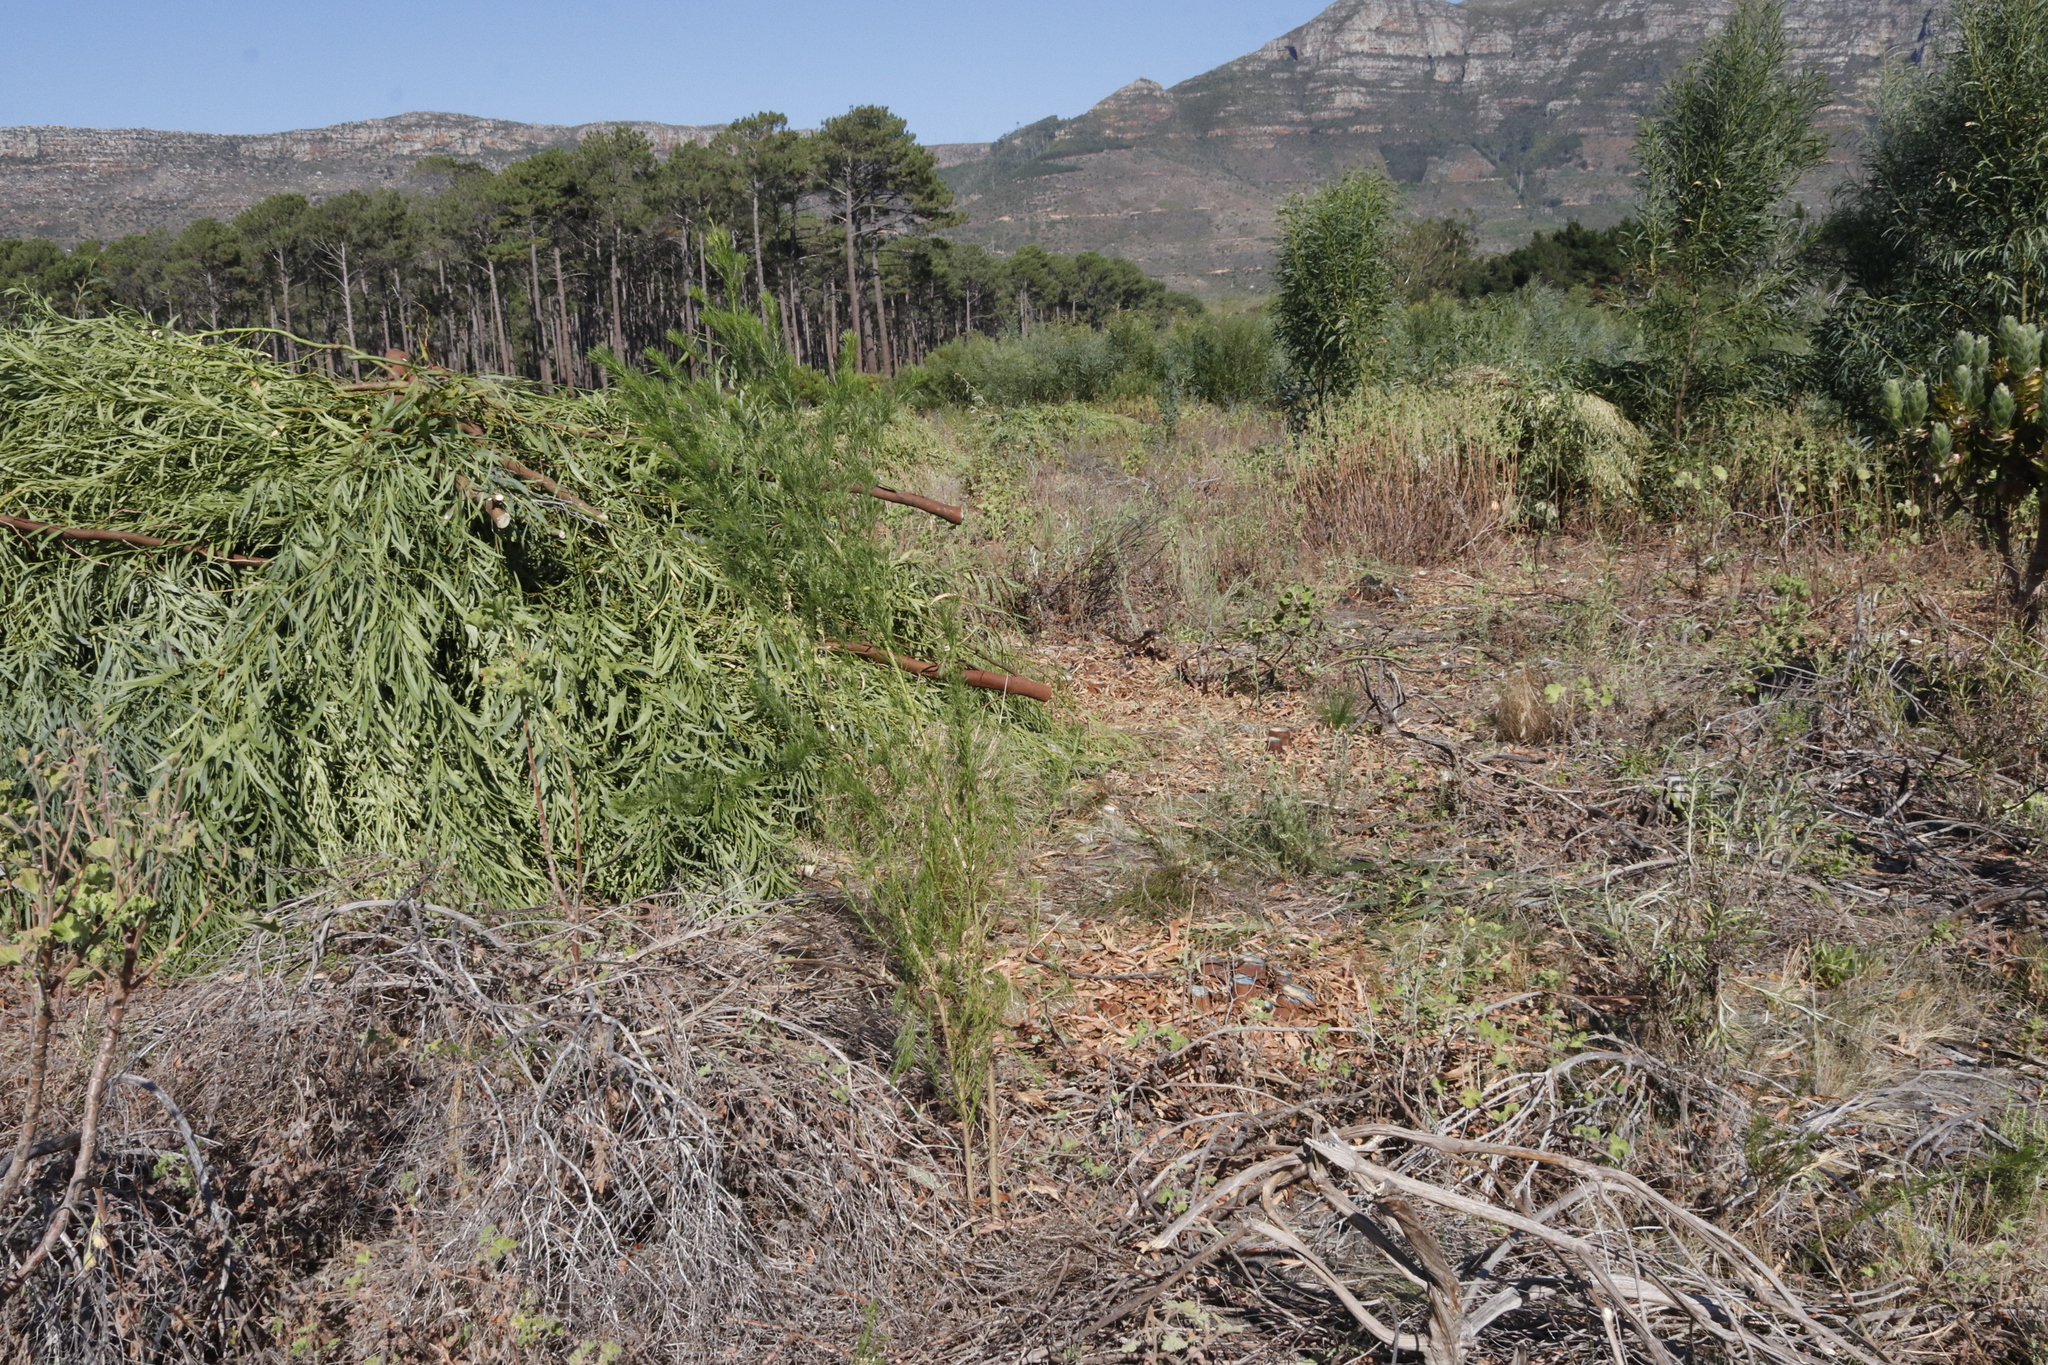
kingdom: Plantae
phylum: Tracheophyta
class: Magnoliopsida
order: Fabales
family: Fabaceae
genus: Psoralea
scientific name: Psoralea pinnata
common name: African scurfpea
